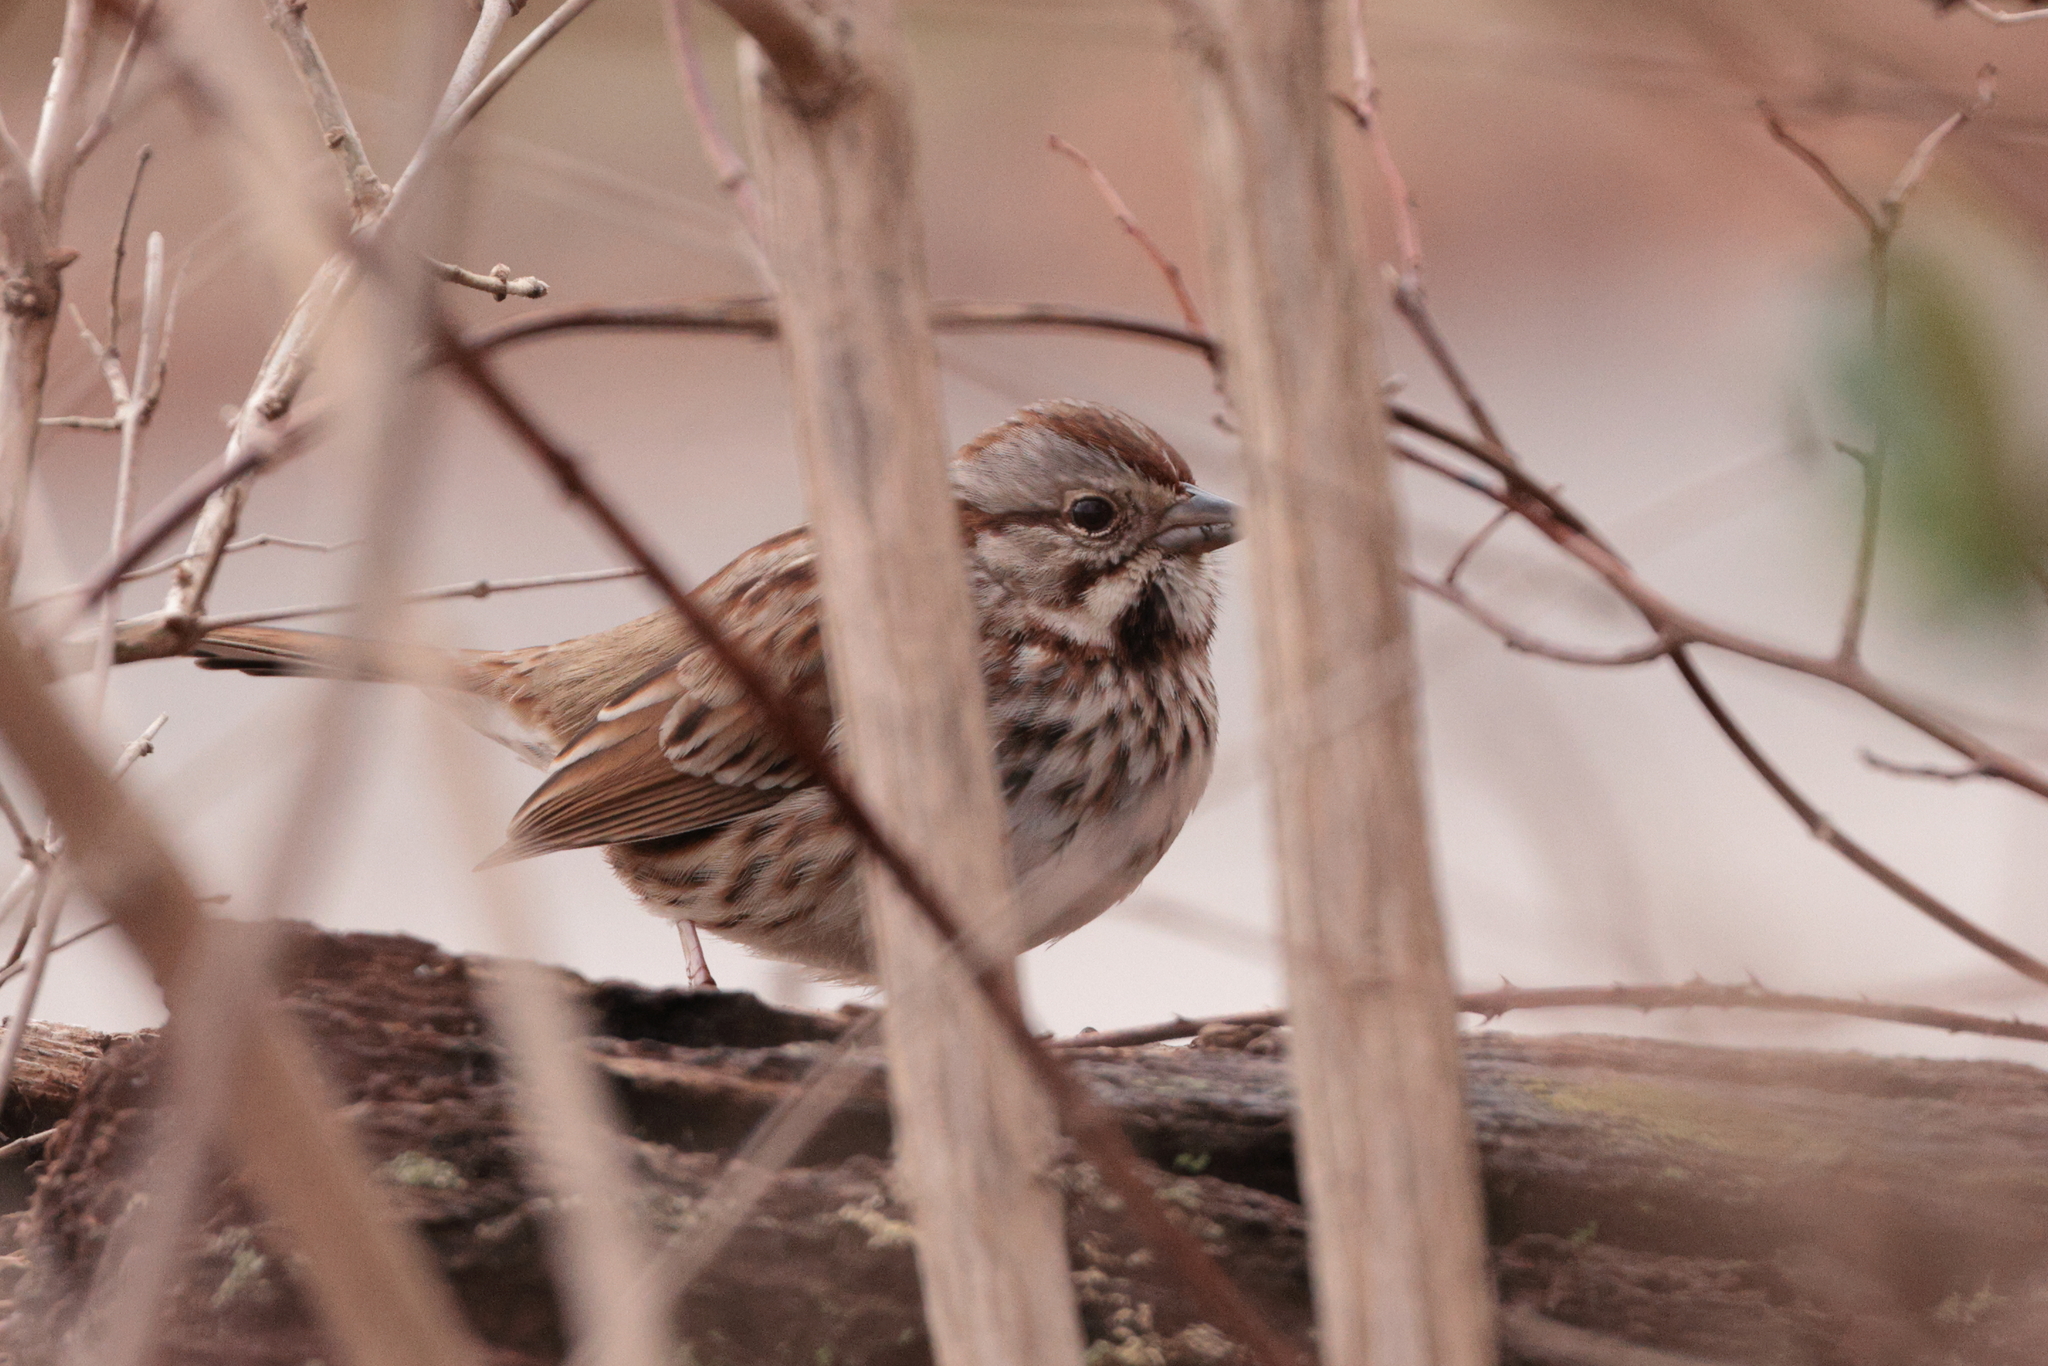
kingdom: Animalia
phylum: Chordata
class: Aves
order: Passeriformes
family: Passerellidae
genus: Melospiza
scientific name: Melospiza melodia
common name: Song sparrow
